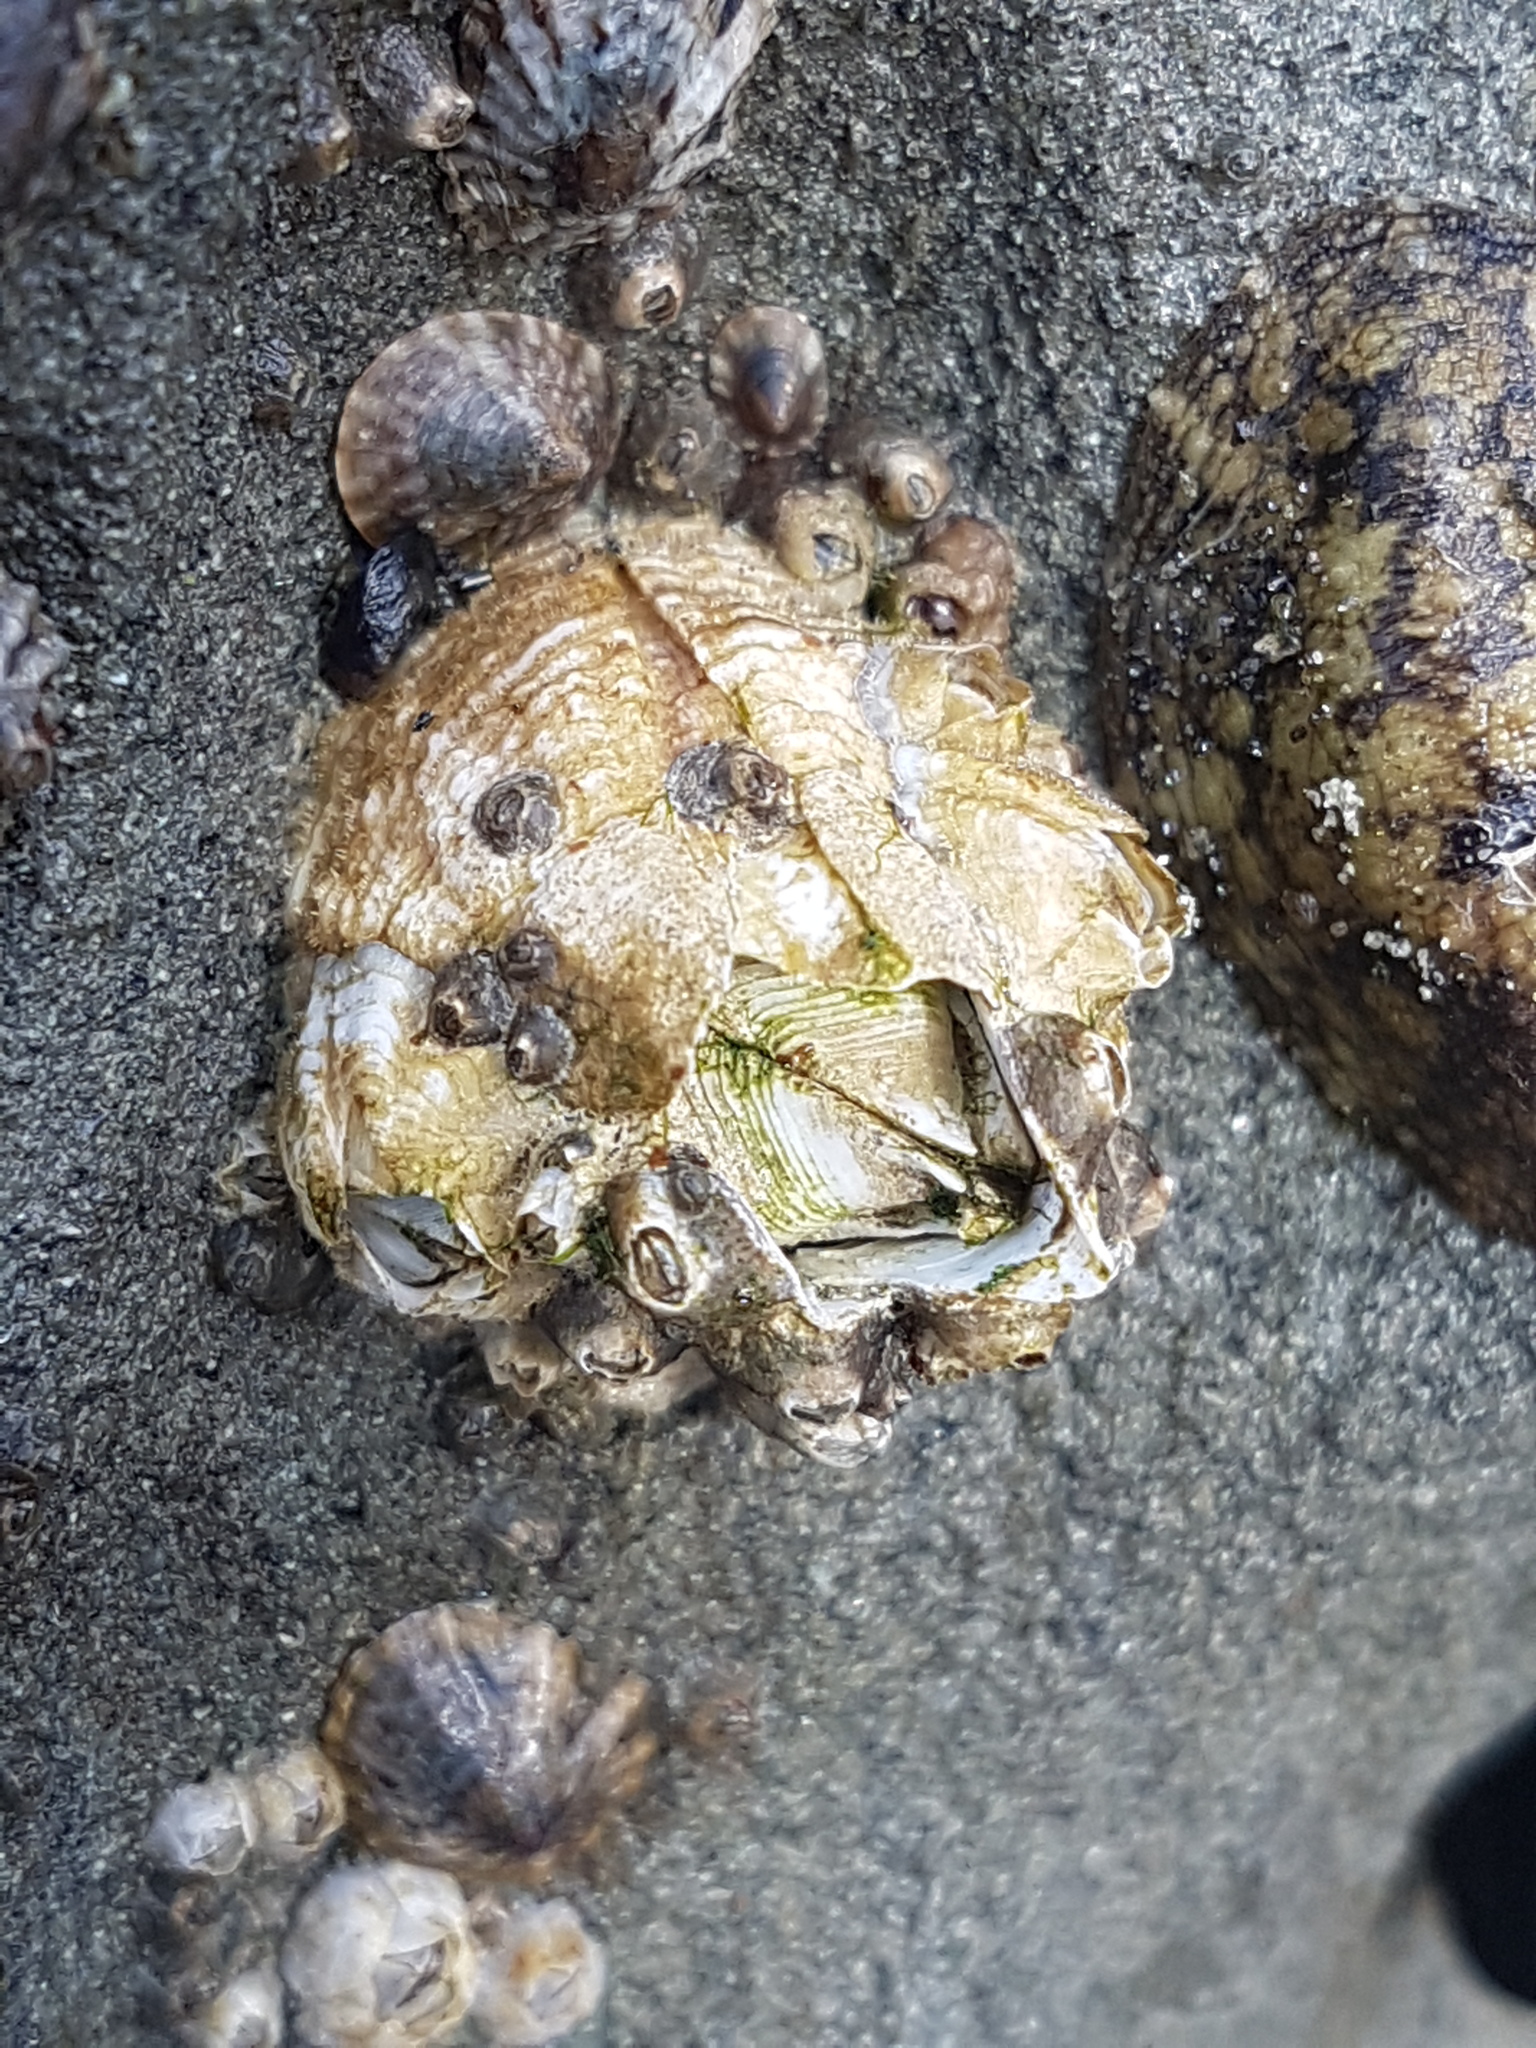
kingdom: Animalia
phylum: Arthropoda
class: Maxillopoda
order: Sessilia
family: Tetraclitidae
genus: Epopella
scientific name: Epopella plicata
